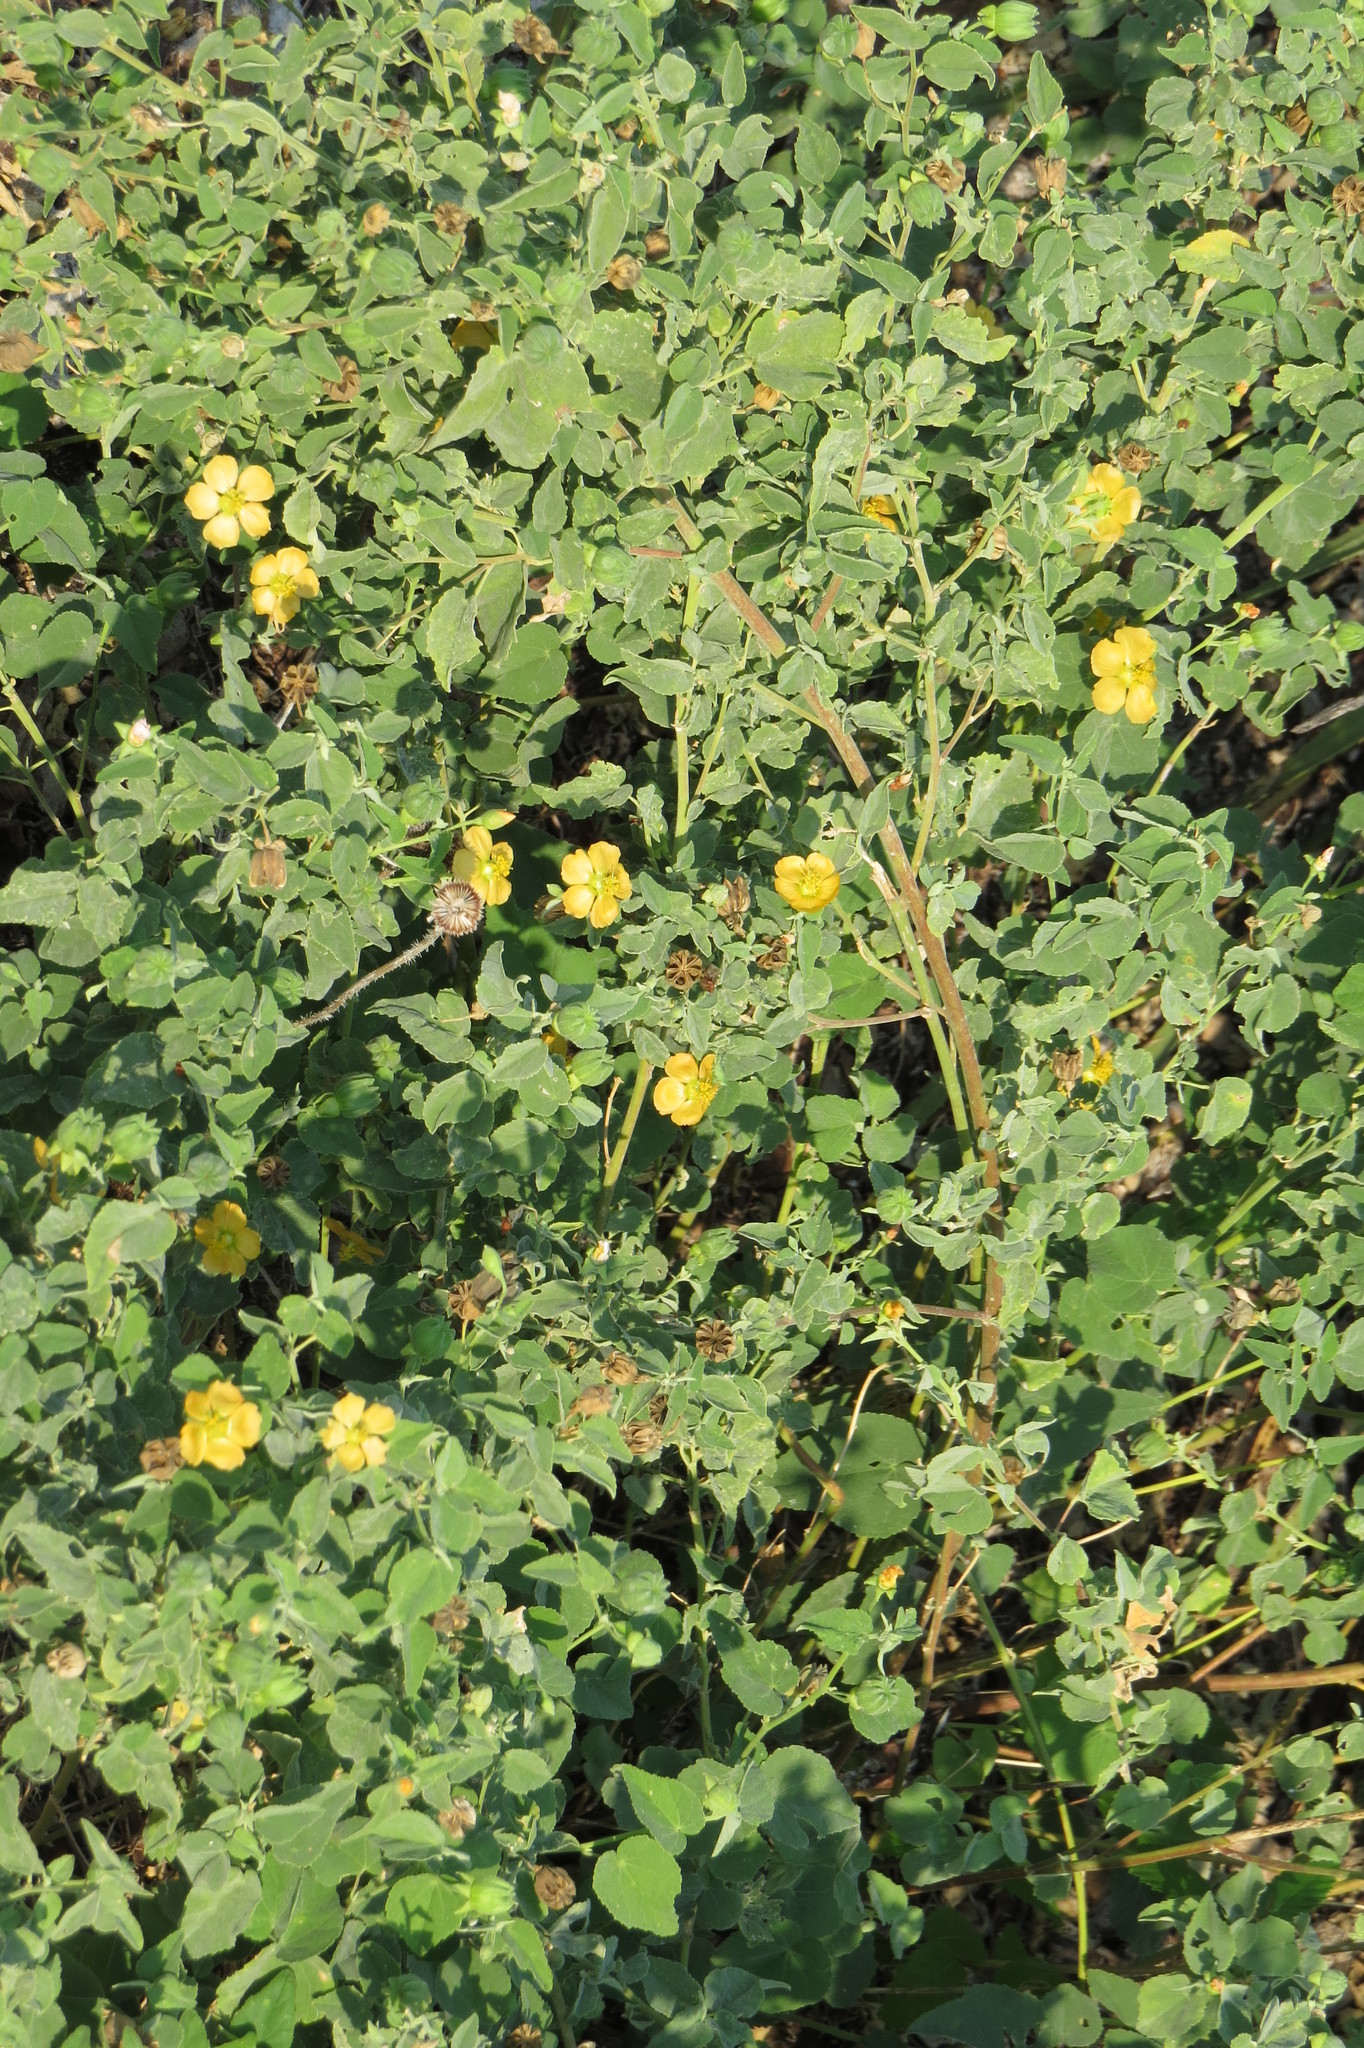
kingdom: Plantae
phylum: Tracheophyta
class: Magnoliopsida
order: Malvales
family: Malvaceae
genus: Abutilon
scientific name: Abutilon fruticosum
